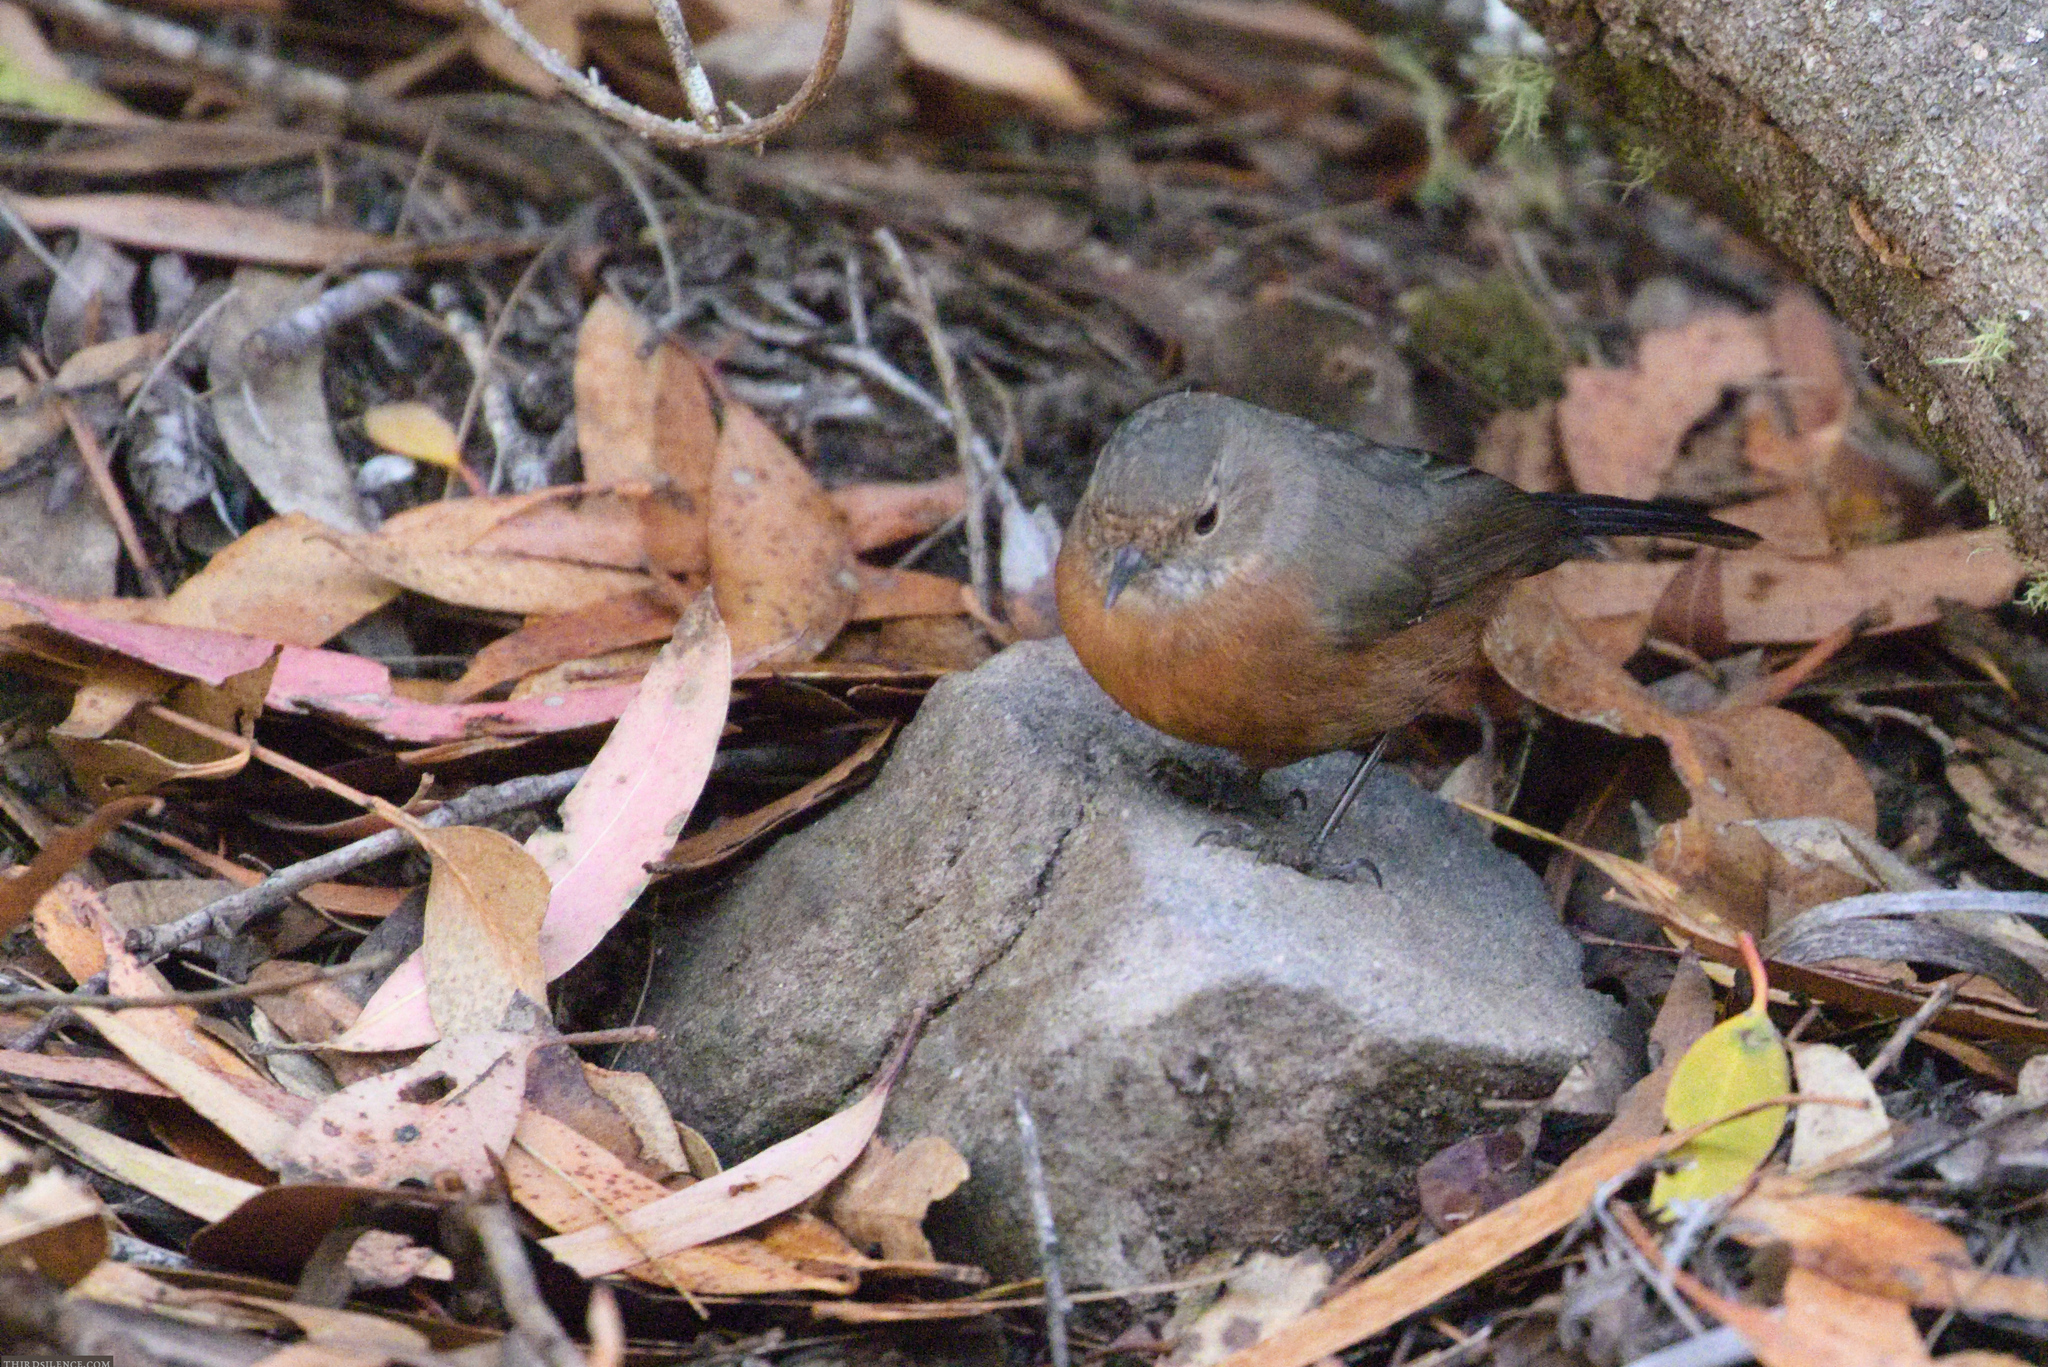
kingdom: Animalia
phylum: Chordata
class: Aves
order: Passeriformes
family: Acanthizidae
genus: Origma
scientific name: Origma solitaria
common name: Rockwarbler
